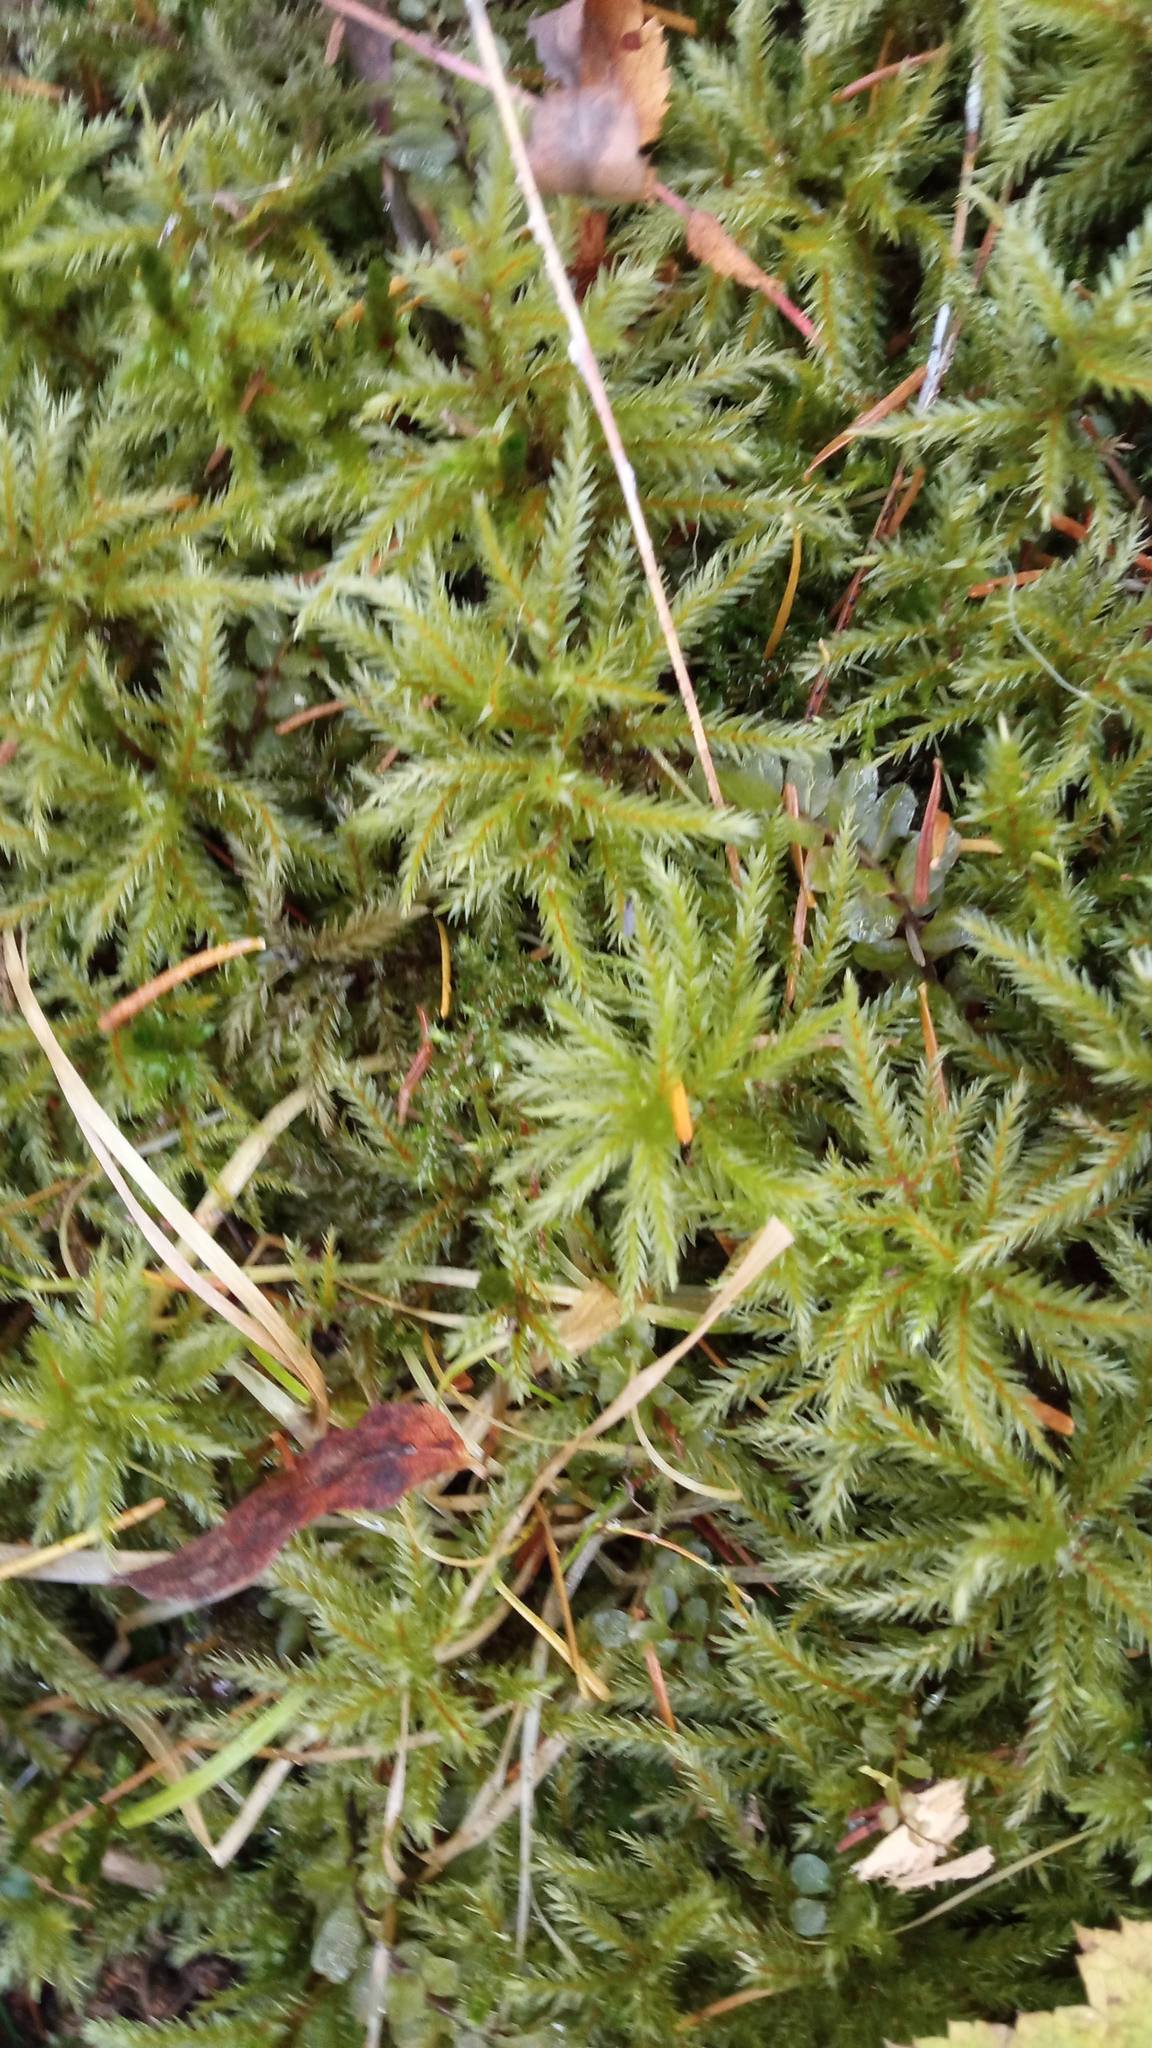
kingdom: Plantae
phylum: Bryophyta
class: Bryopsida
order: Hypnales
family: Climaciaceae
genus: Climacium
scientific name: Climacium dendroides
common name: Northern tree moss
